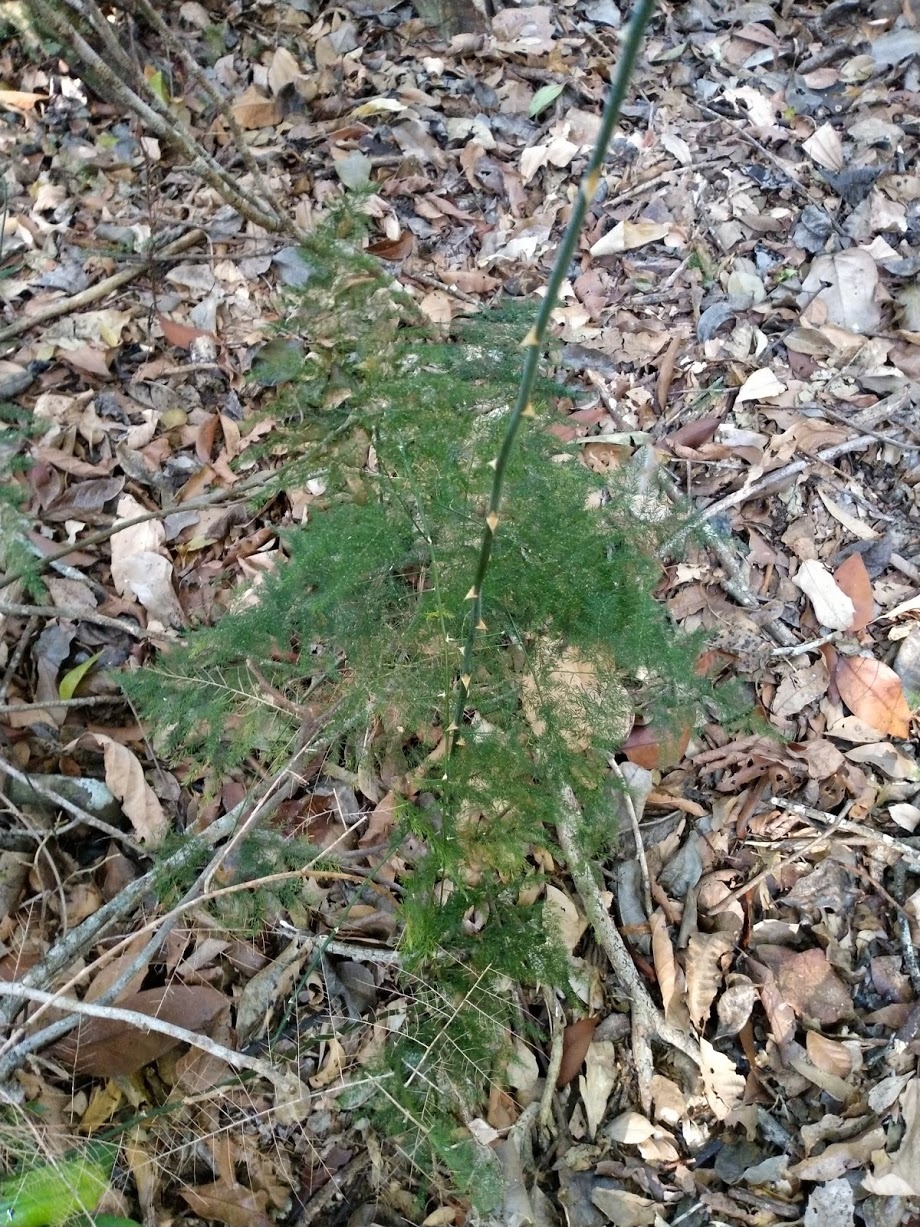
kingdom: Plantae
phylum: Tracheophyta
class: Liliopsida
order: Asparagales
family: Asparagaceae
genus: Asparagus
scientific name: Asparagus setaceus
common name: Common asparagus fern
